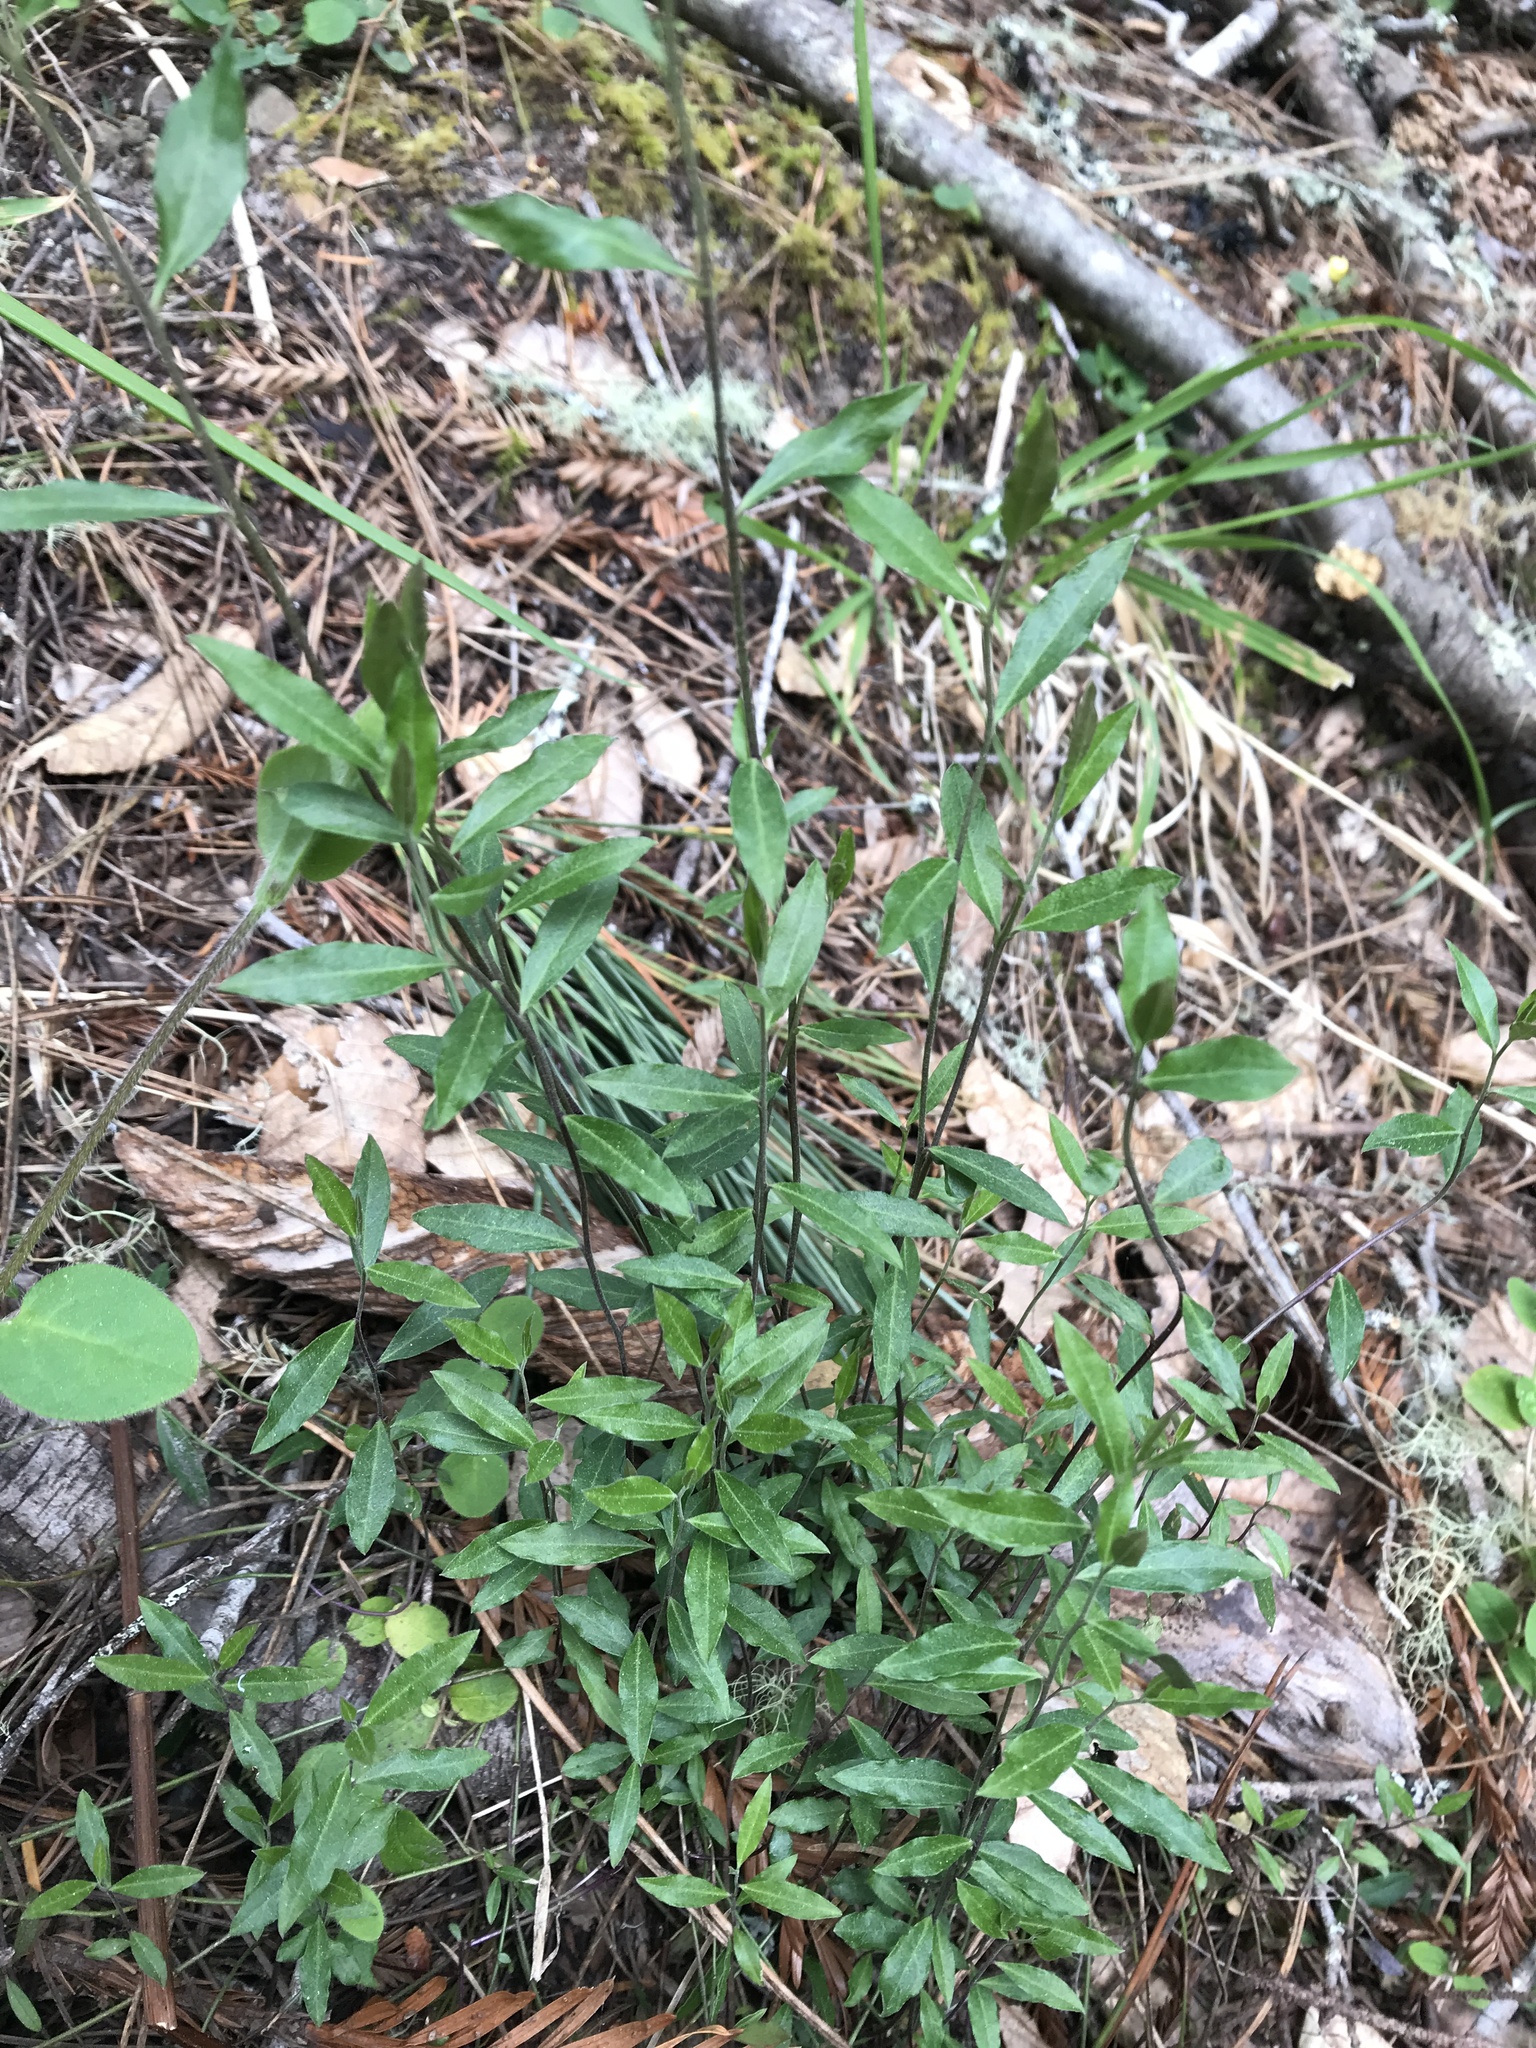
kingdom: Plantae
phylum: Tracheophyta
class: Magnoliopsida
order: Fabales
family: Polygalaceae
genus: Rhinotropis
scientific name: Rhinotropis californica
